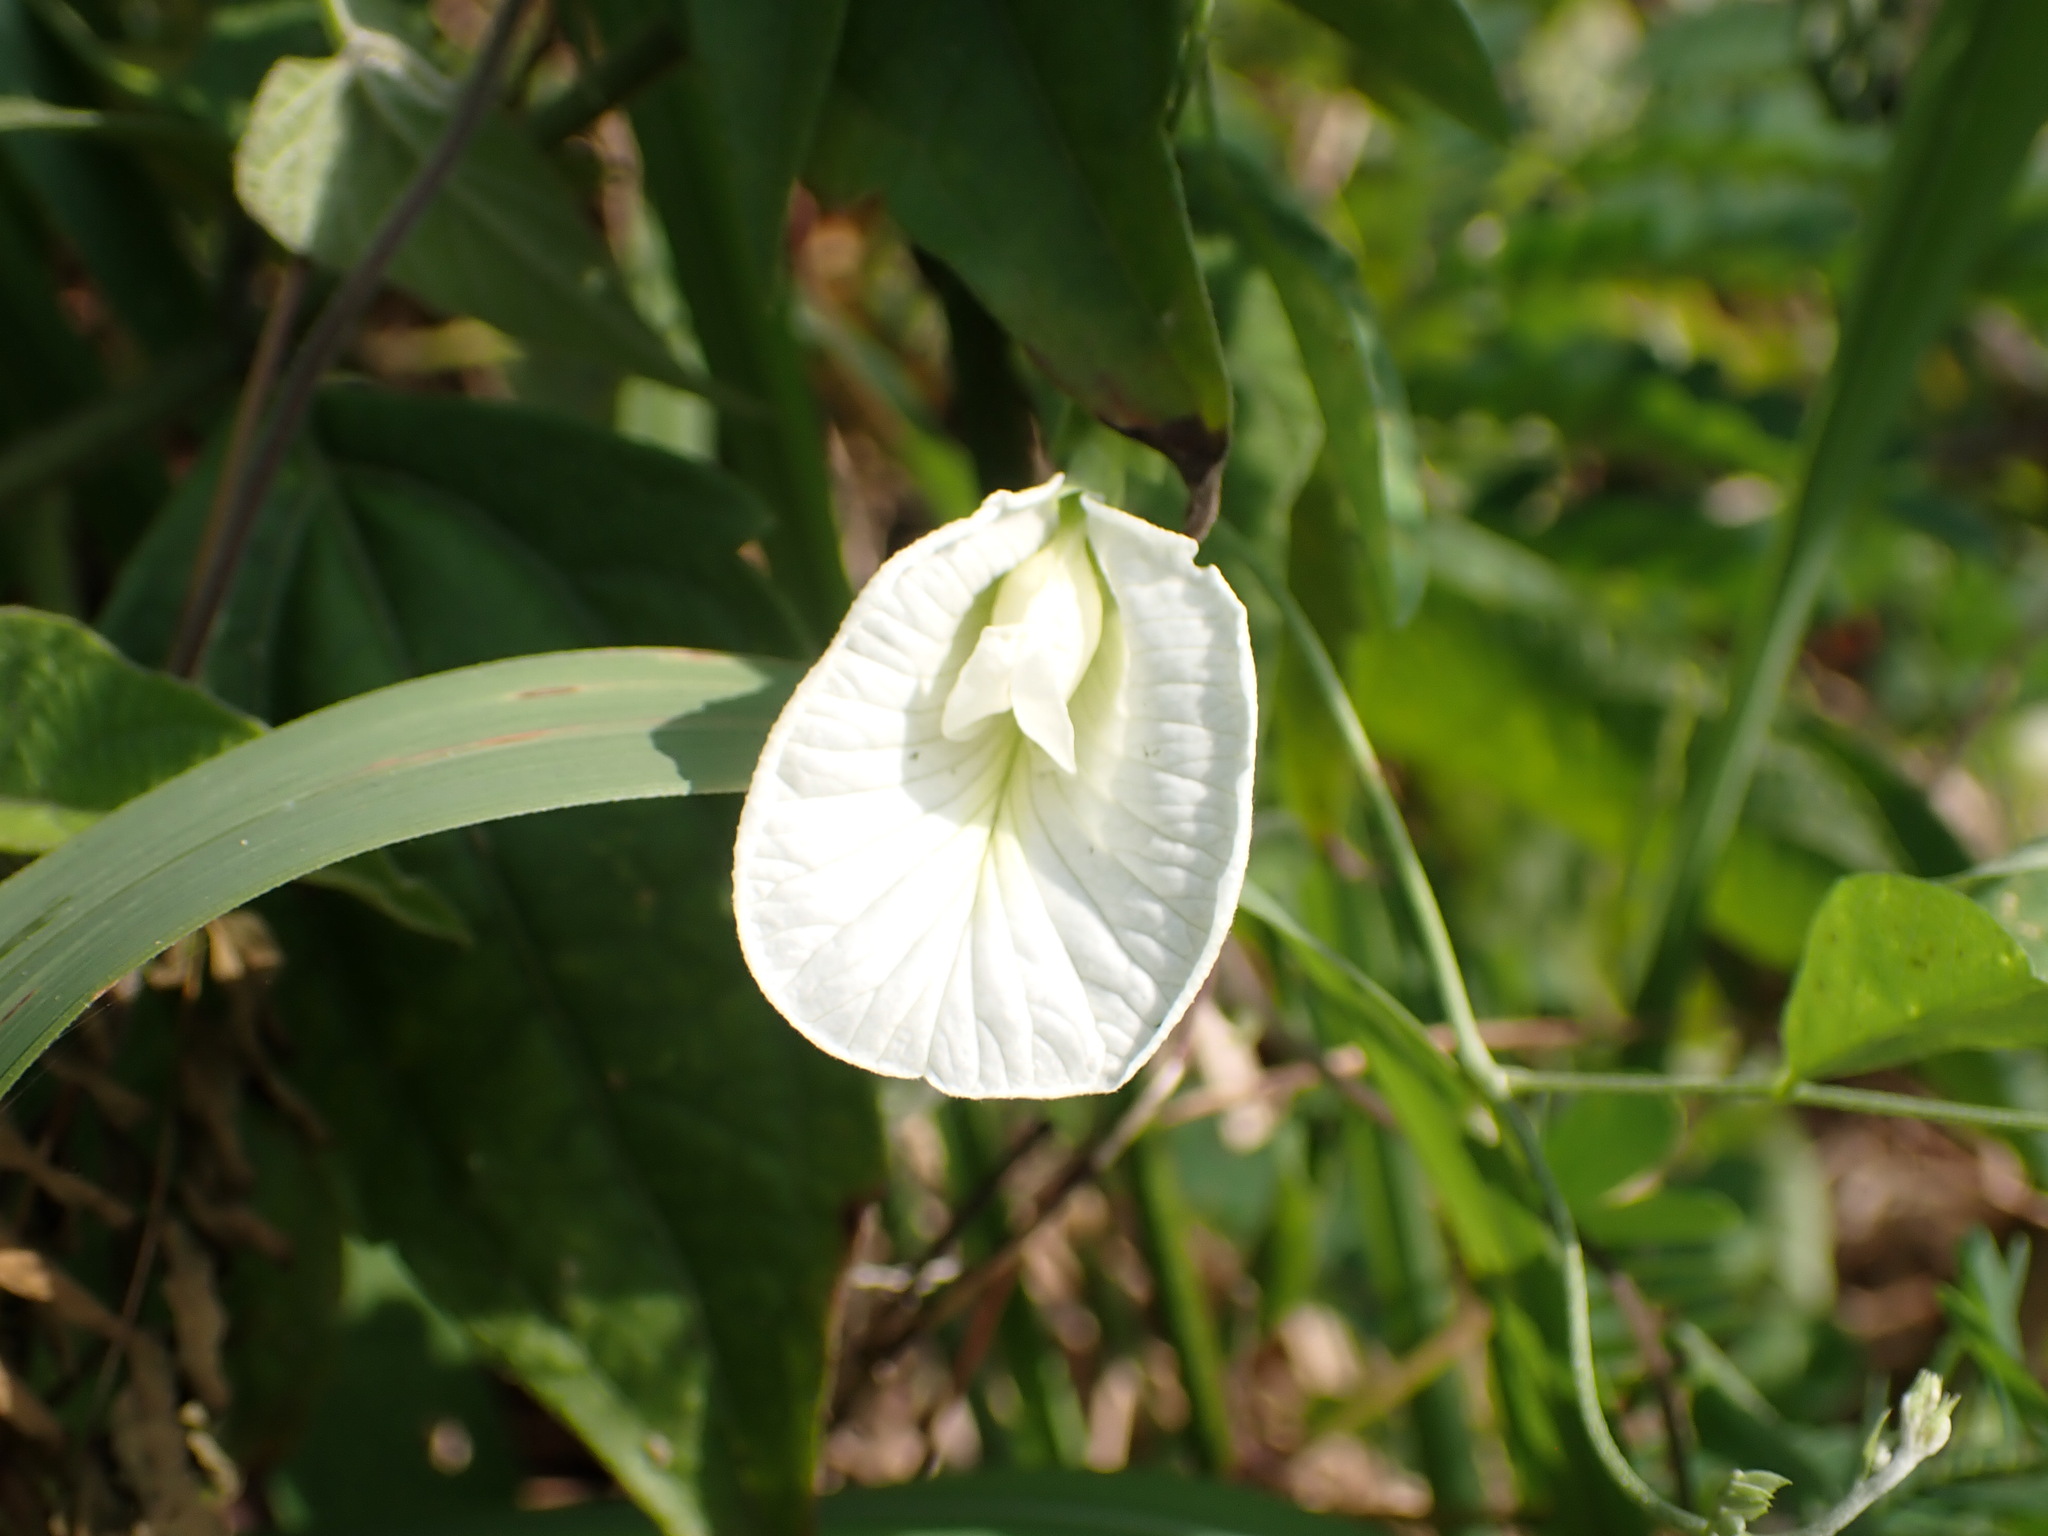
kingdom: Plantae
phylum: Tracheophyta
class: Magnoliopsida
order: Fabales
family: Fabaceae
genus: Clitoria
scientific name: Clitoria ternatea
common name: Asian pigeonwings
